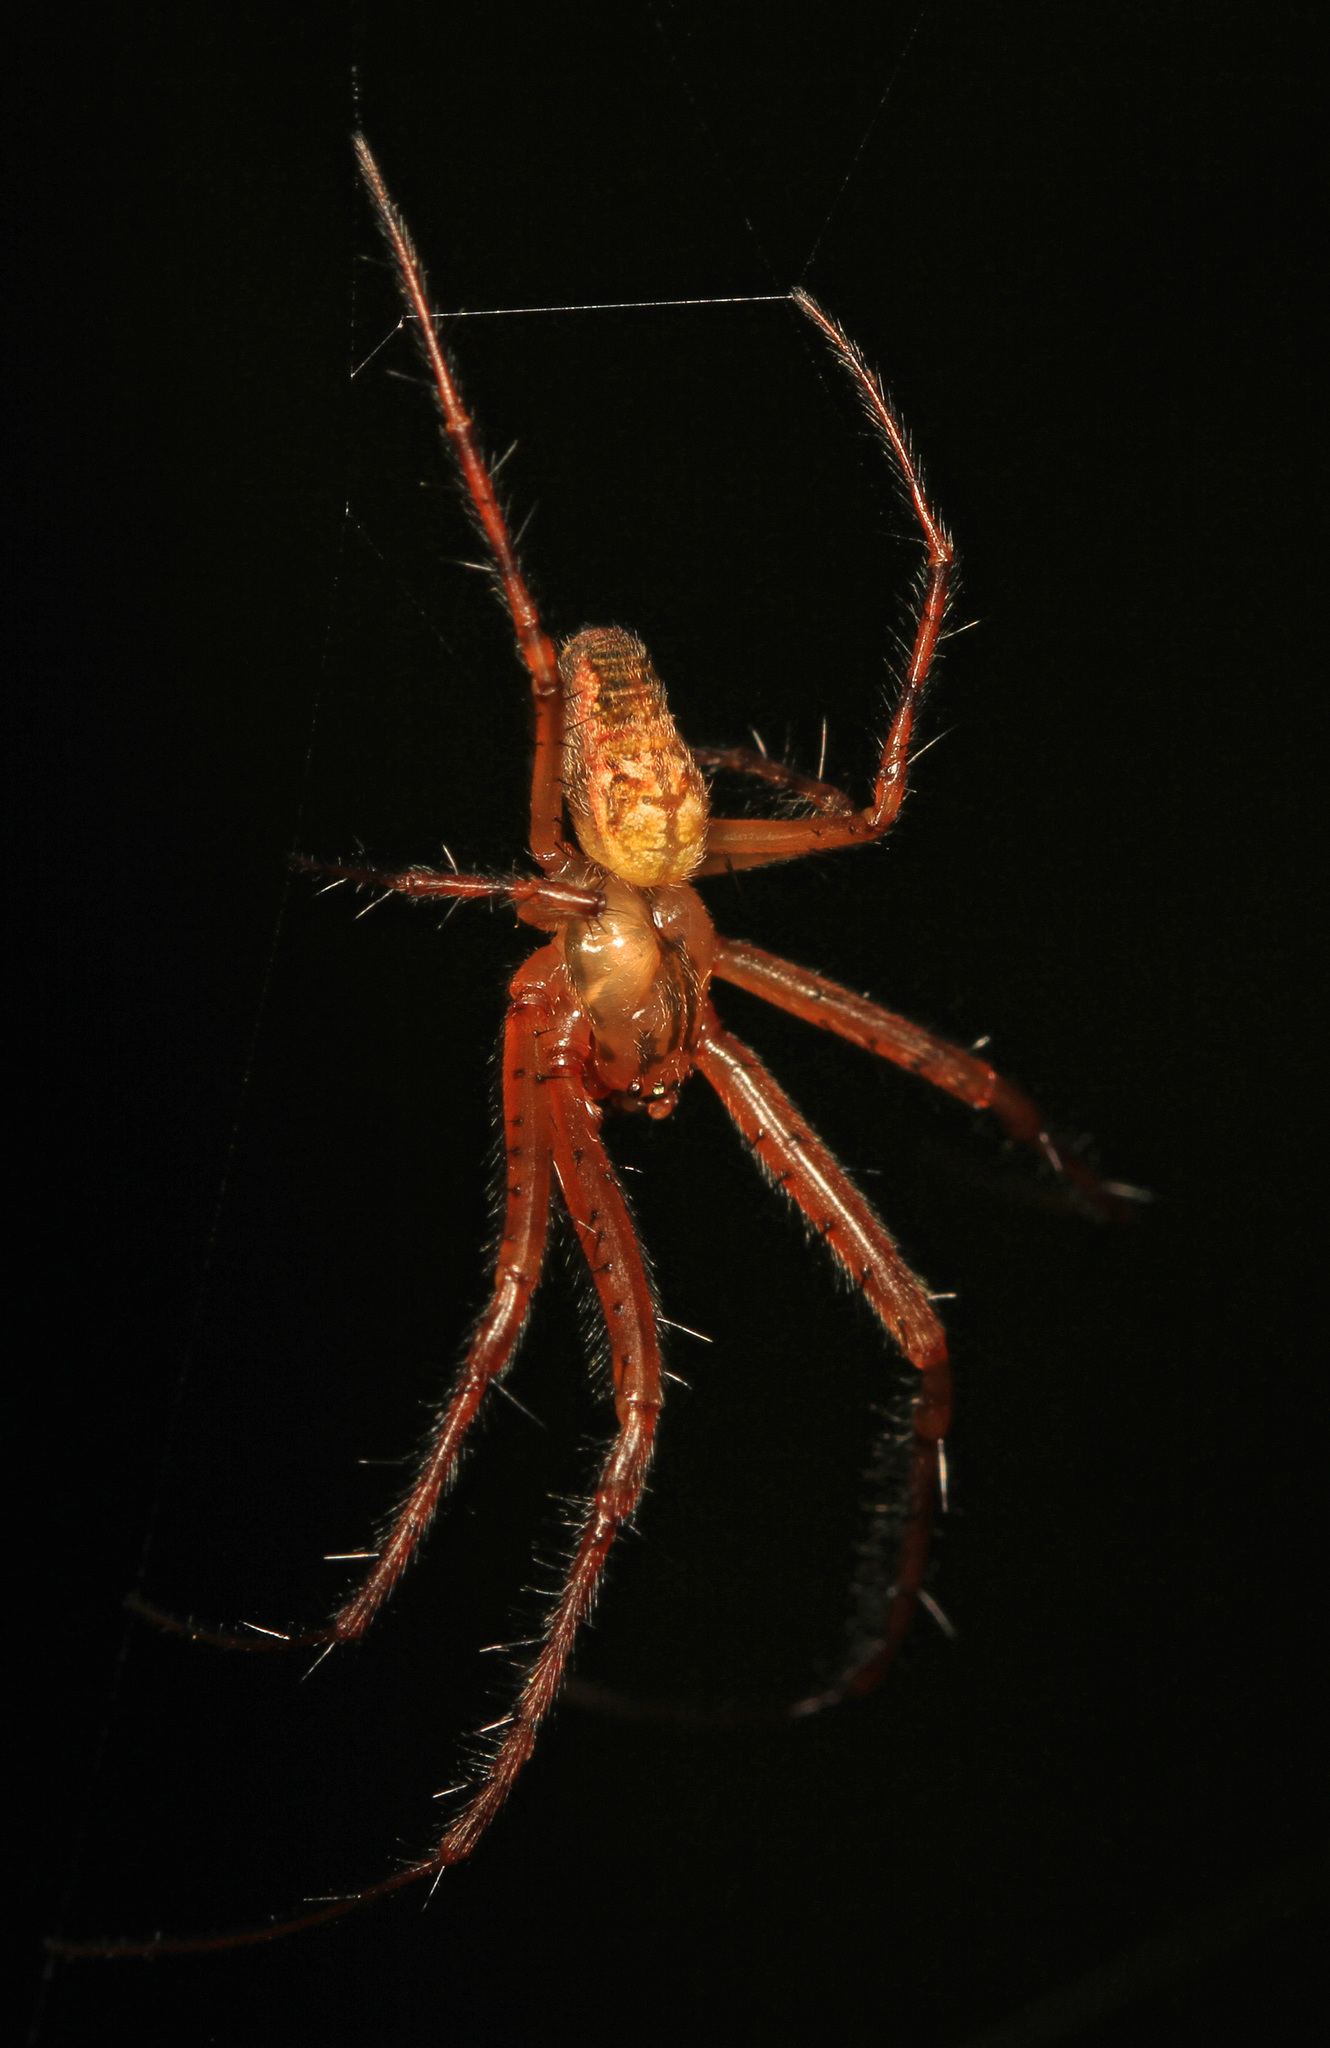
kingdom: Animalia
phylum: Arthropoda
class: Arachnida
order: Araneae
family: Tetragnathidae
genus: Metellina
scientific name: Metellina segmentata
